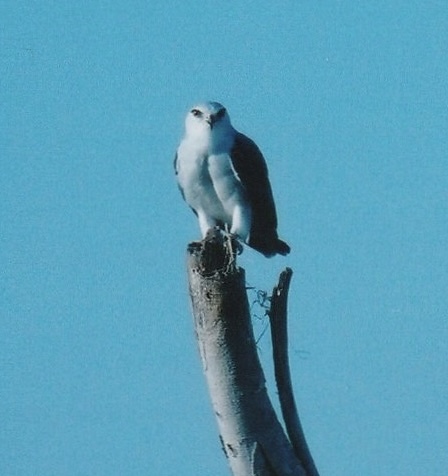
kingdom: Animalia
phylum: Chordata
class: Aves
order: Accipitriformes
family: Accipitridae
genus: Elanus
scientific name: Elanus caeruleus
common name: Black-winged kite
